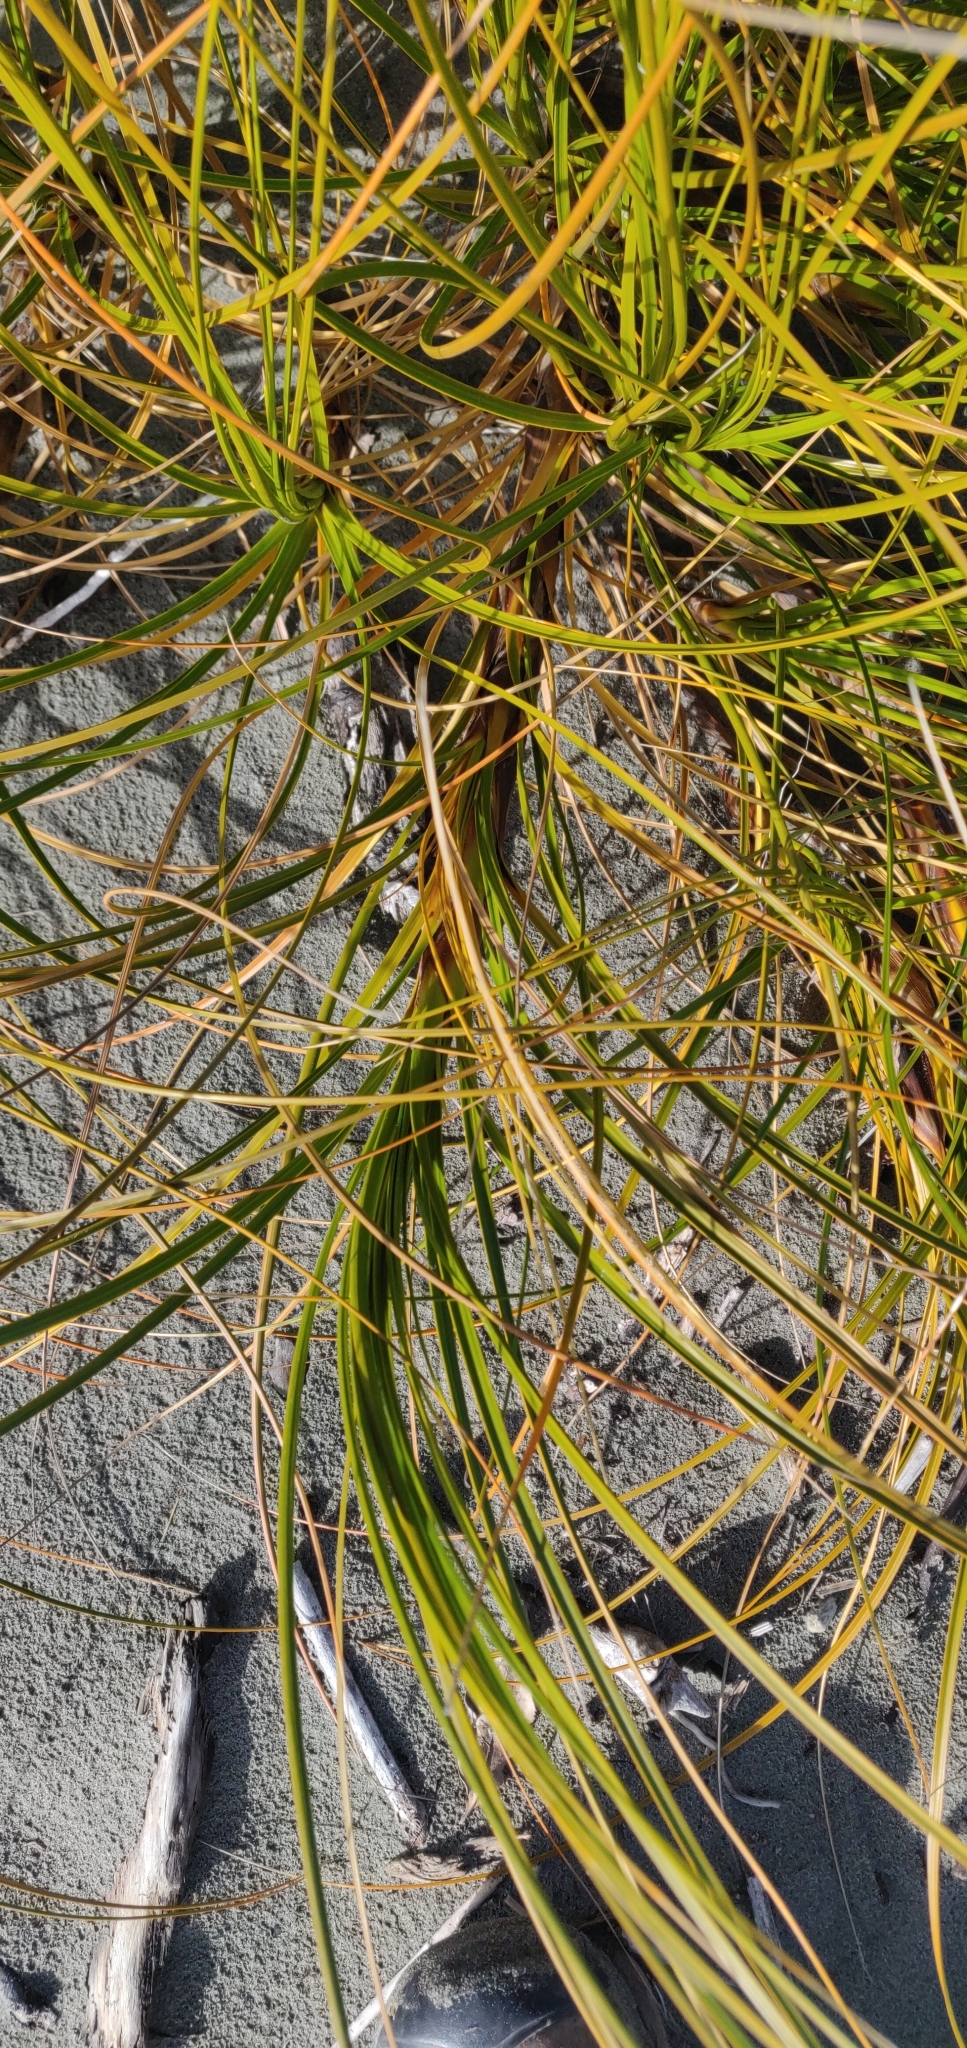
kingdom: Plantae
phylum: Tracheophyta
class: Liliopsida
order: Poales
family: Cyperaceae
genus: Ficinia
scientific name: Ficinia spiralis
